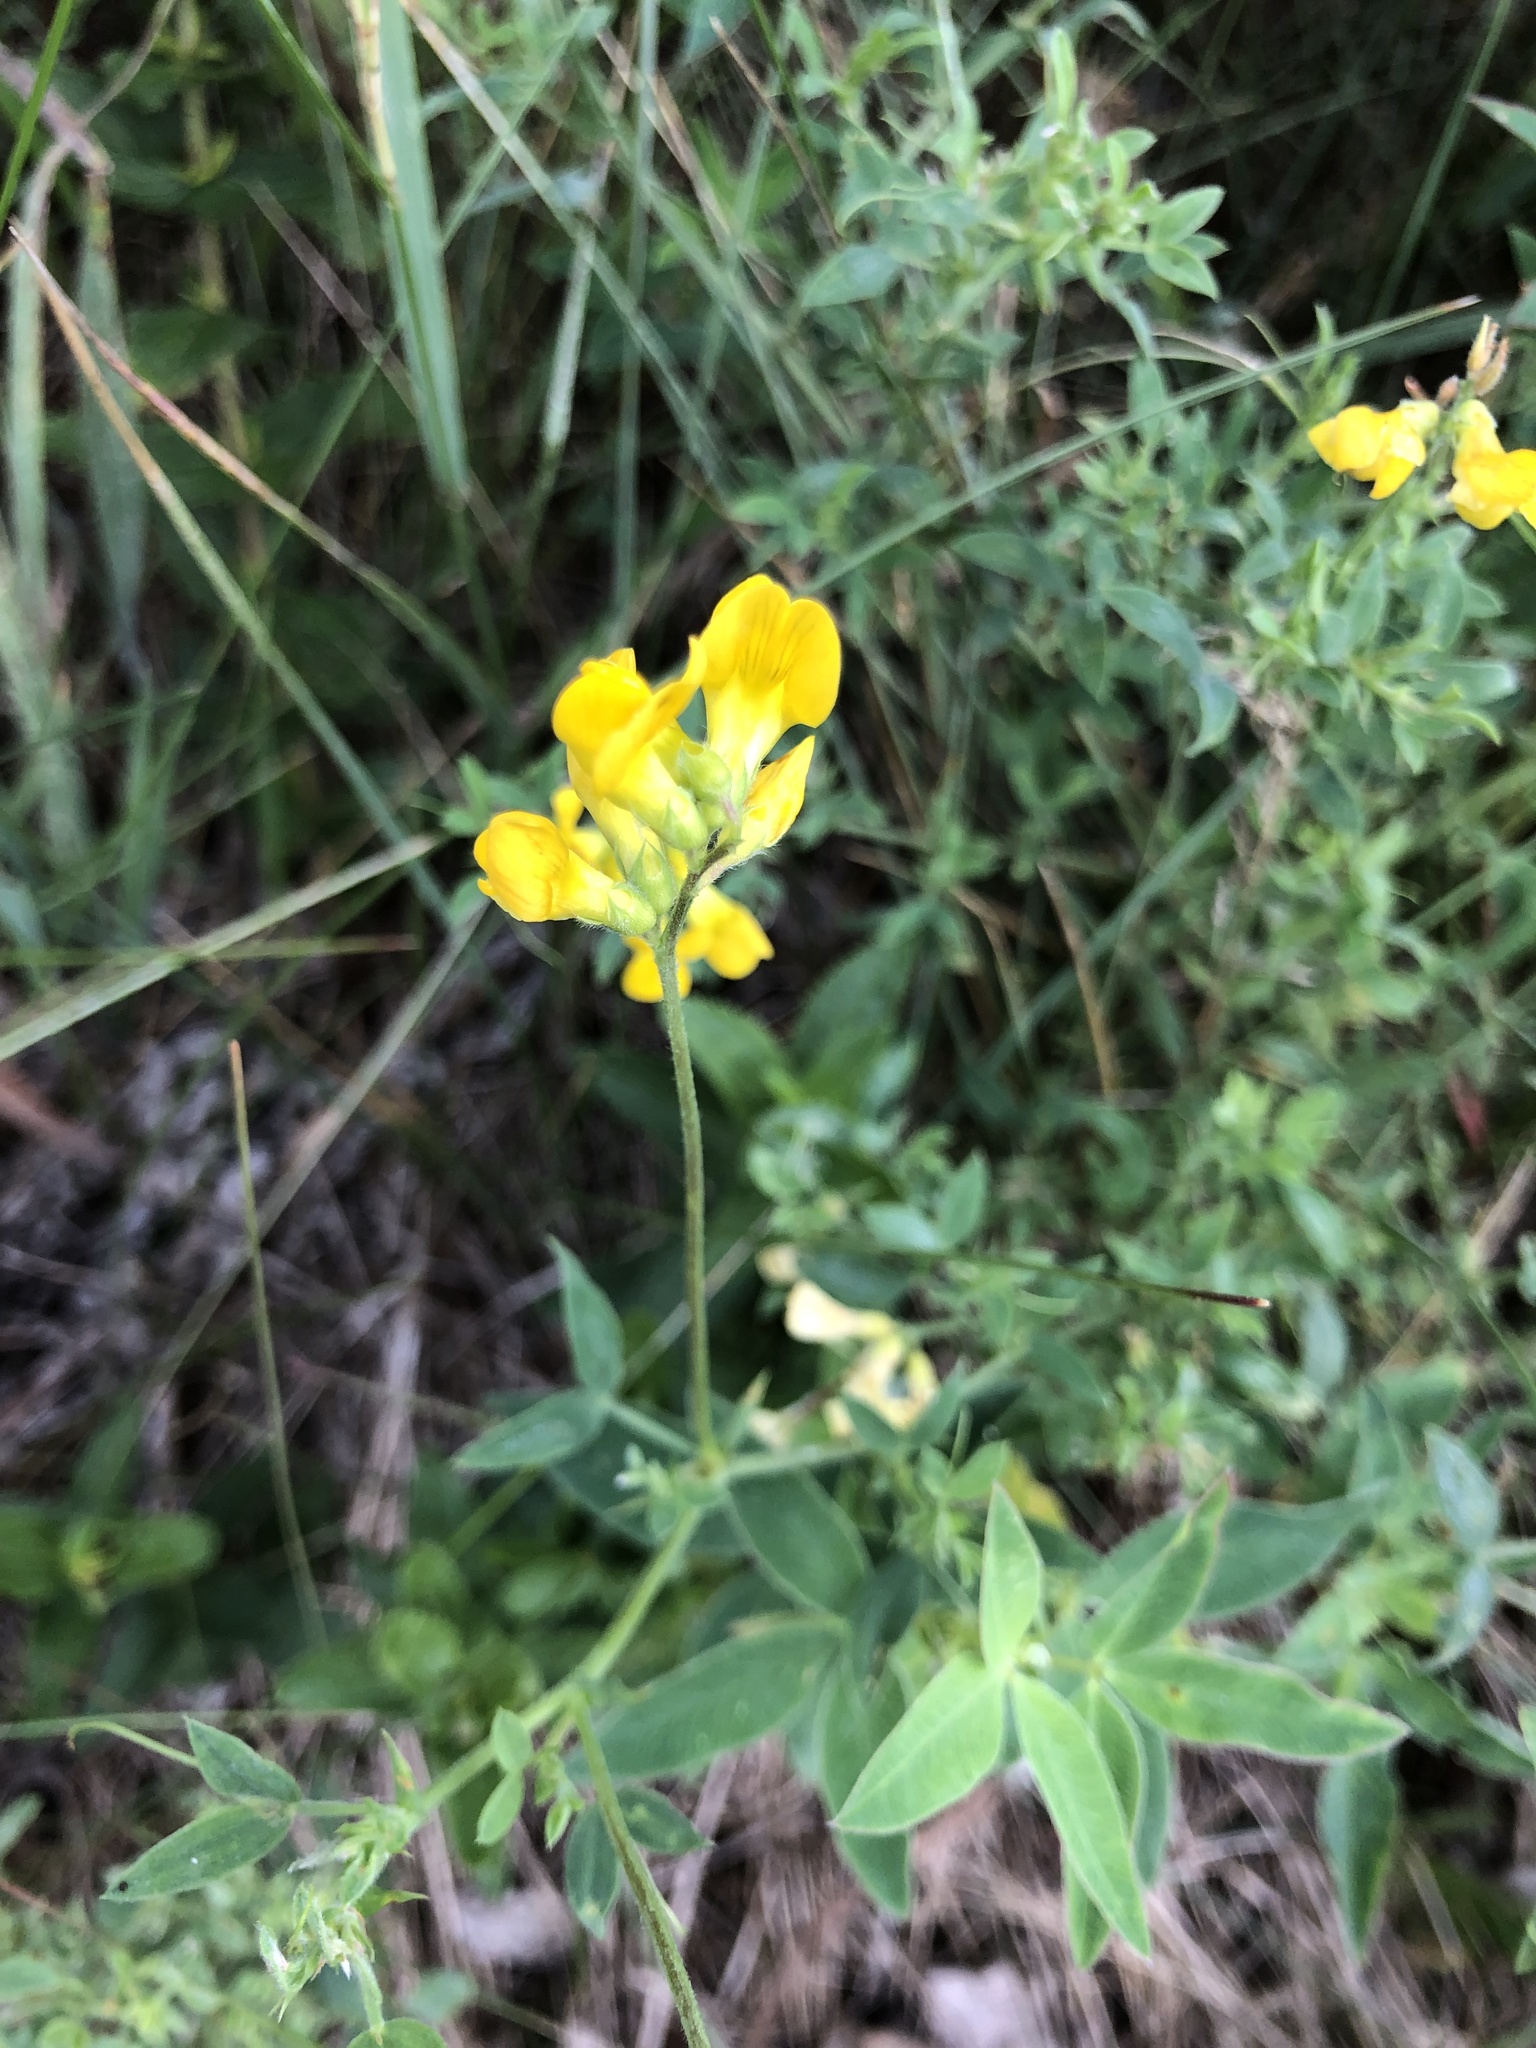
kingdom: Plantae
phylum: Tracheophyta
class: Magnoliopsida
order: Fabales
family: Fabaceae
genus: Lathyrus
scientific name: Lathyrus pratensis
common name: Meadow vetchling
